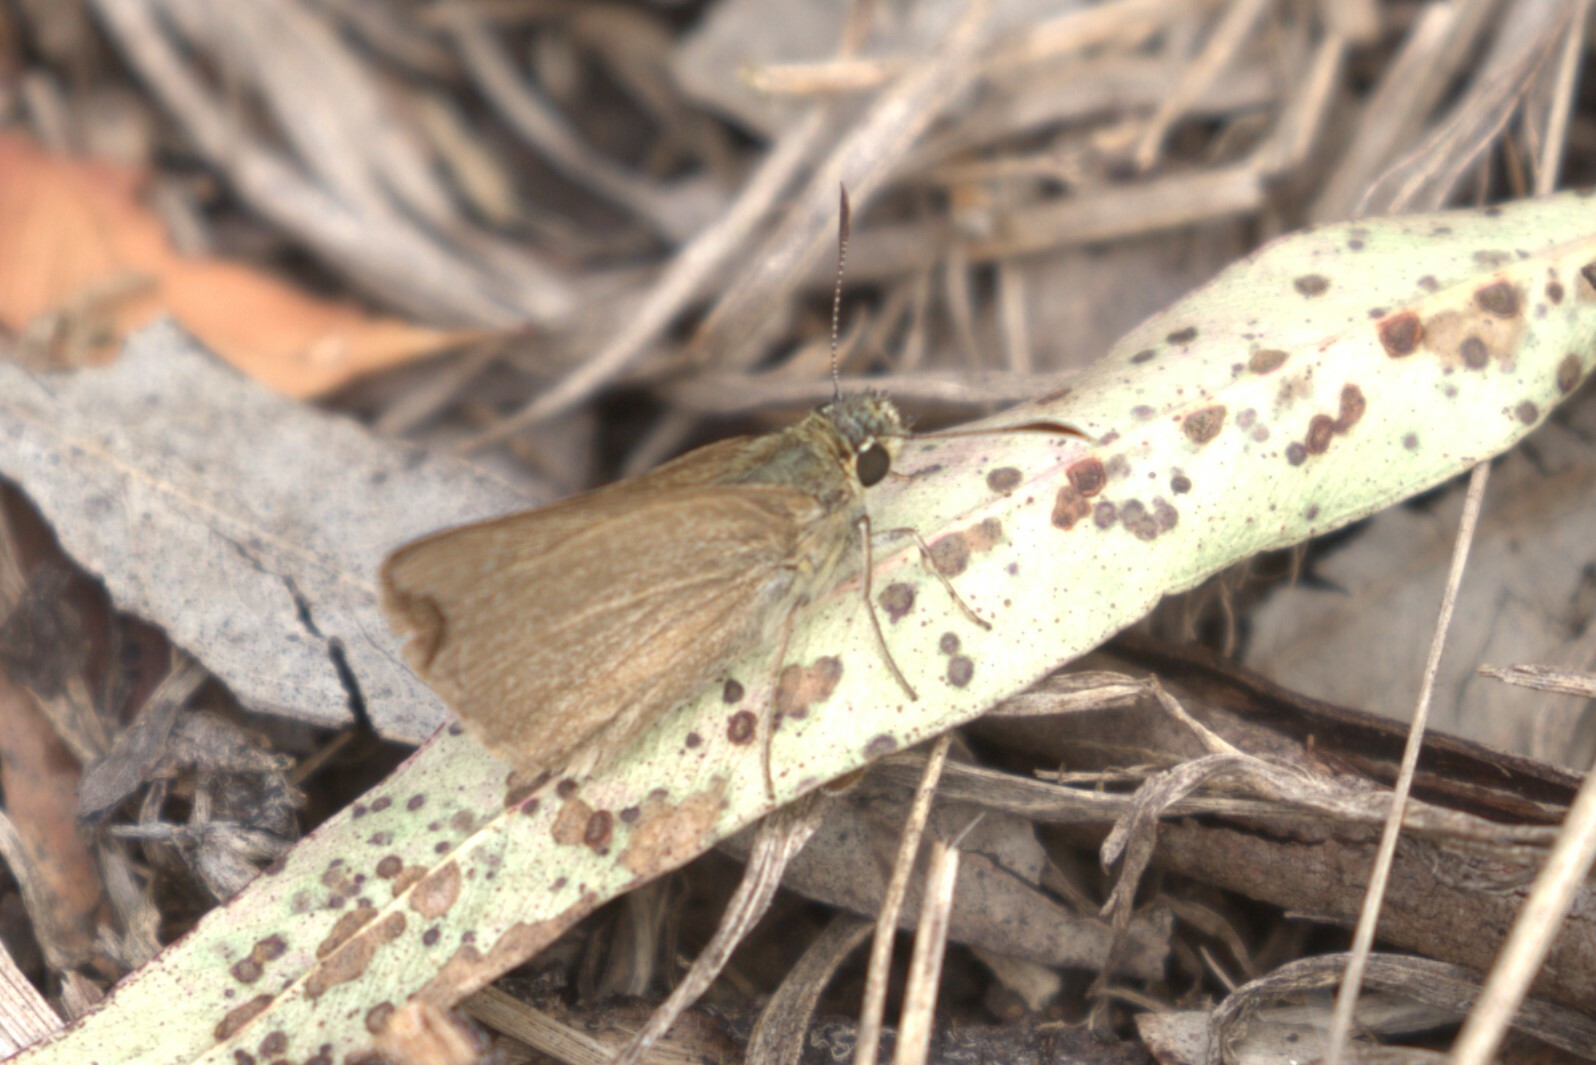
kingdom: Animalia
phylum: Arthropoda
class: Insecta
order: Lepidoptera
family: Hesperiidae
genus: Toxidia
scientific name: Toxidia
